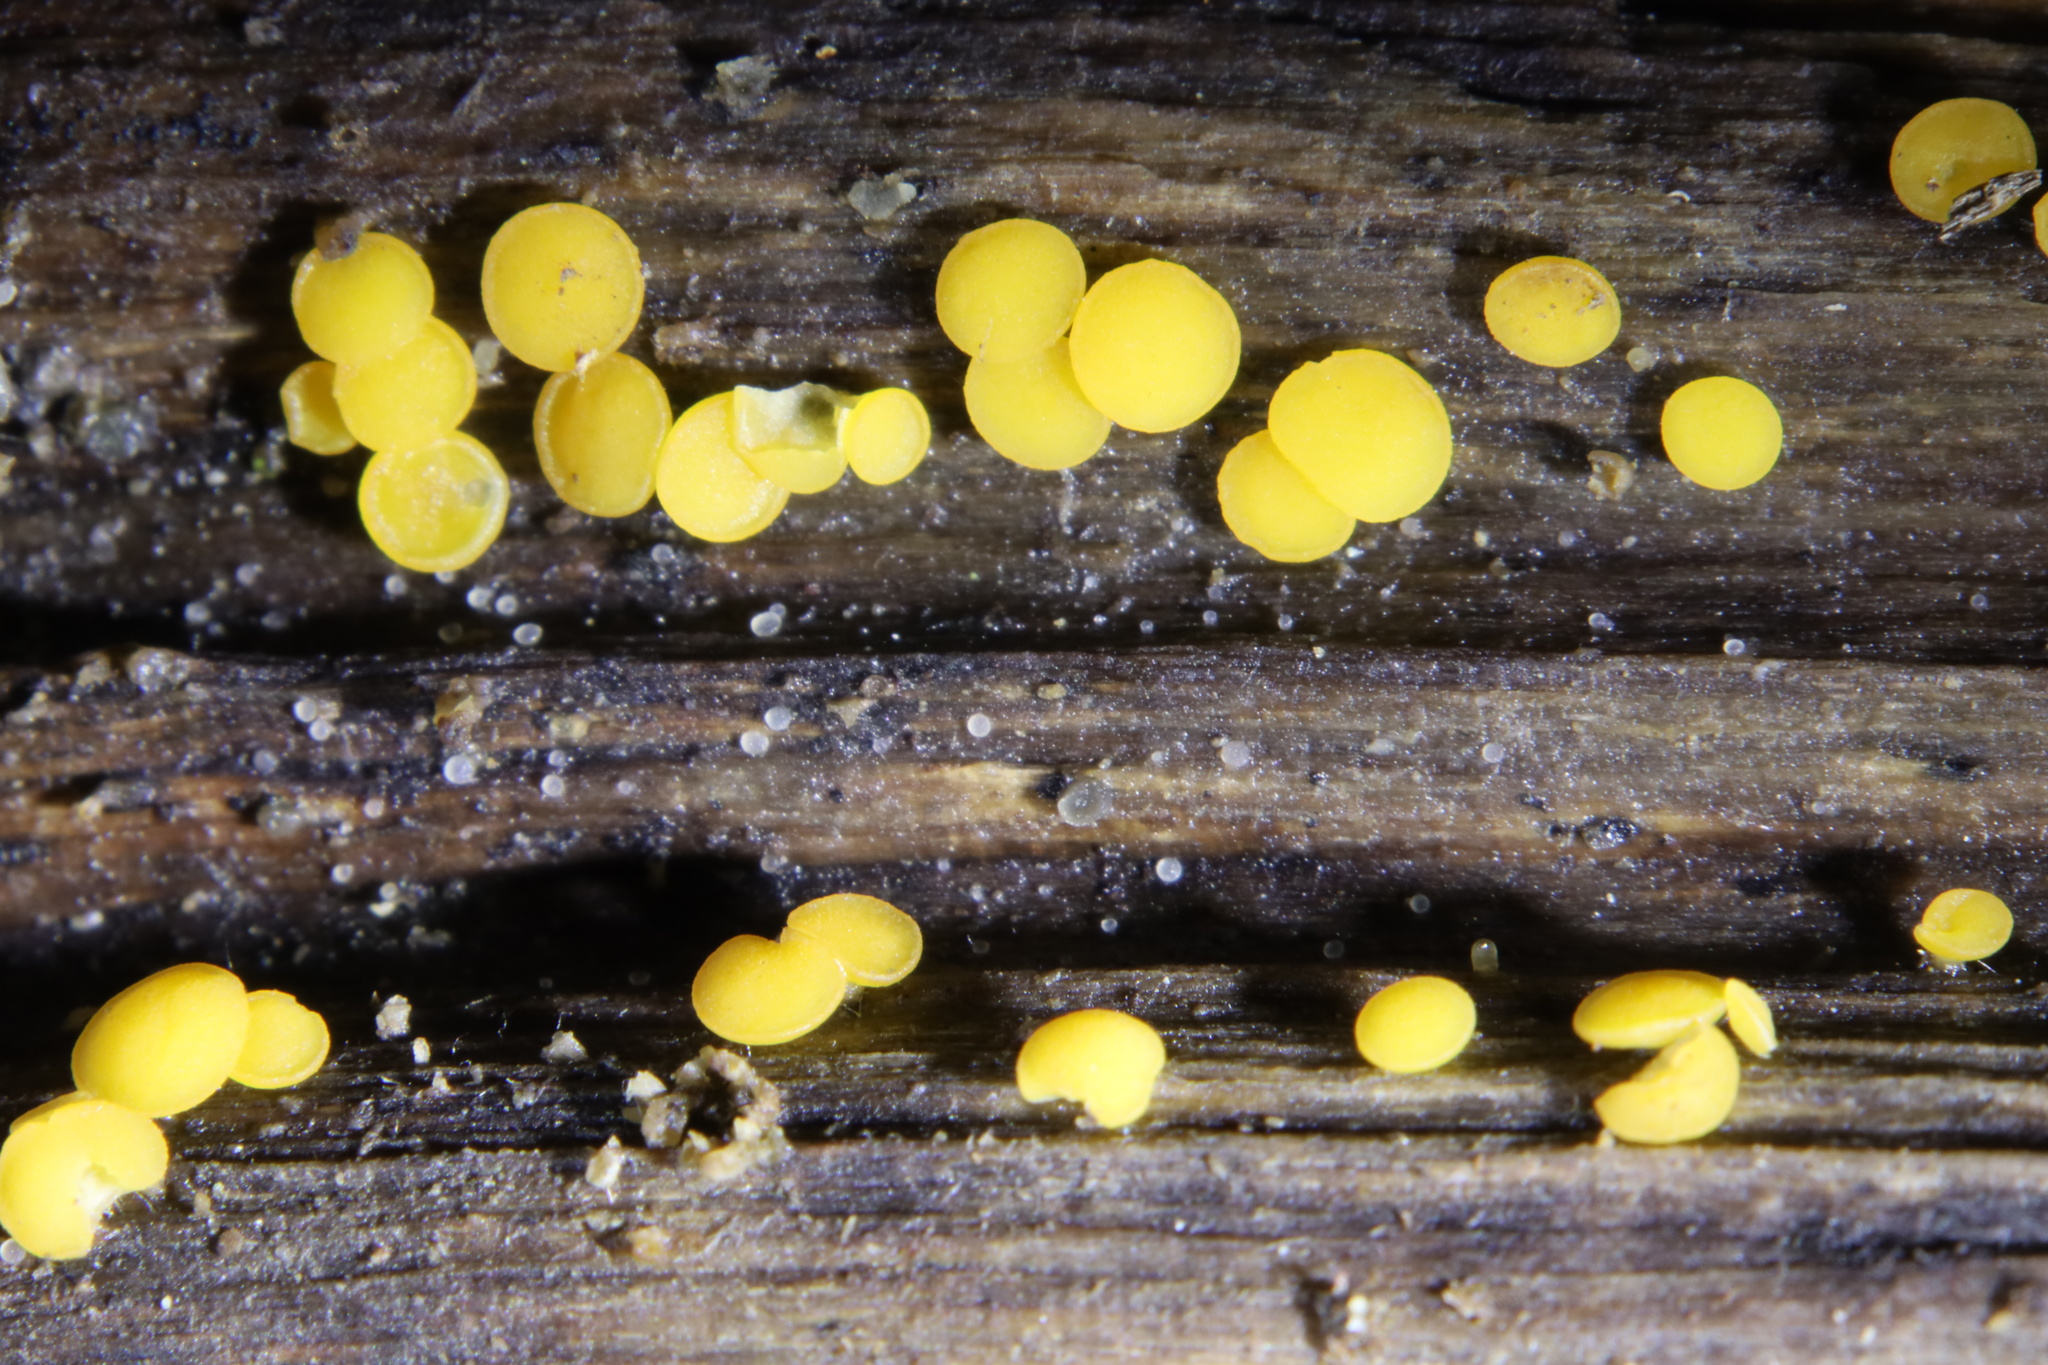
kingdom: Fungi
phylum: Ascomycota
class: Leotiomycetes
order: Helotiales
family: Pezizellaceae
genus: Calycina
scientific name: Calycina citrina
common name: Yellow fairy cups
